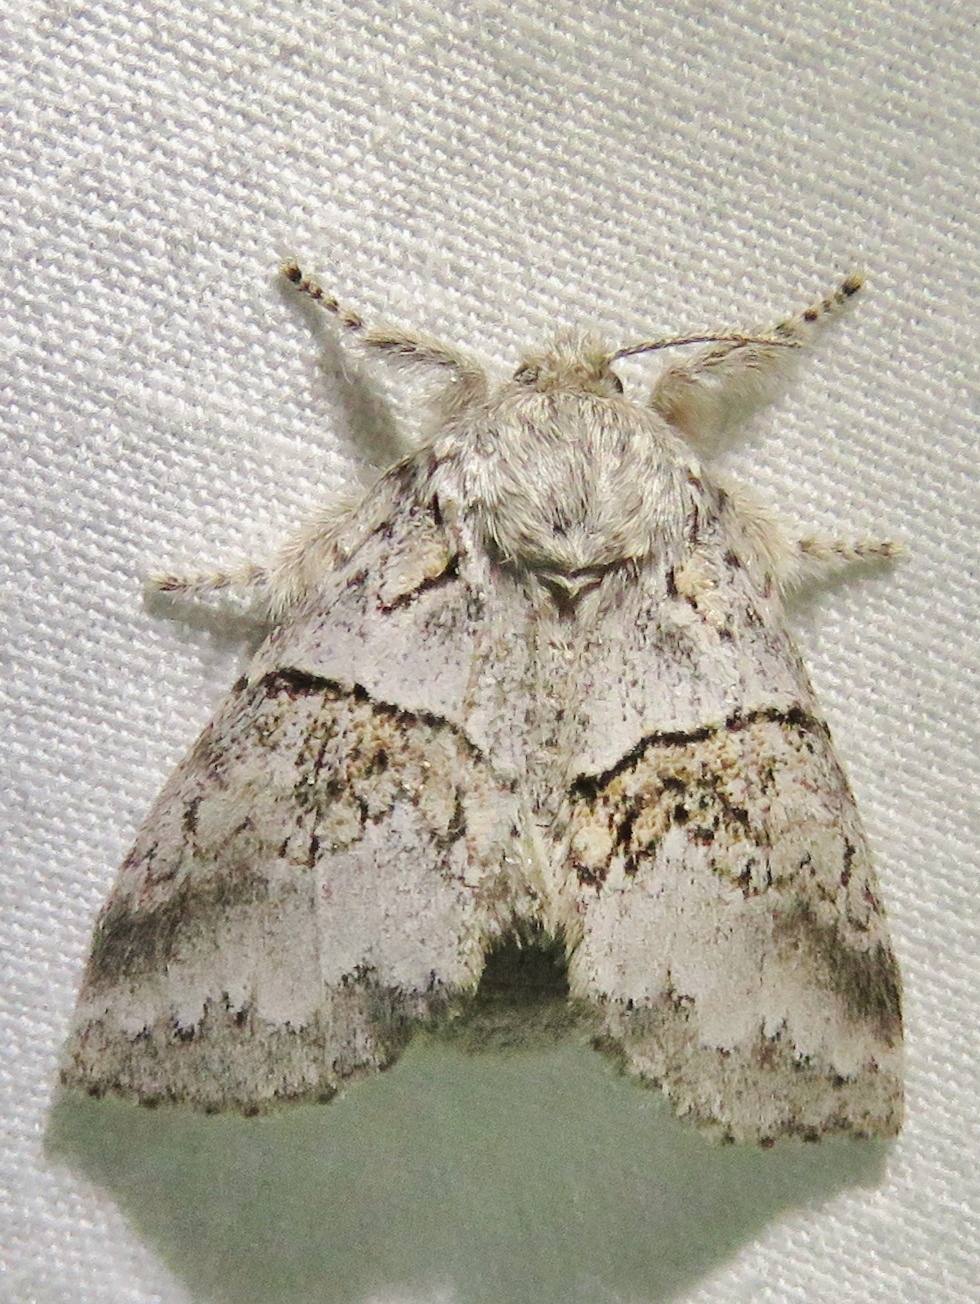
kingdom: Animalia
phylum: Arthropoda
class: Insecta
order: Lepidoptera
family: Notodontidae
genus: Gluphisia
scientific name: Gluphisia septentrionis
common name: Common gluphisia
